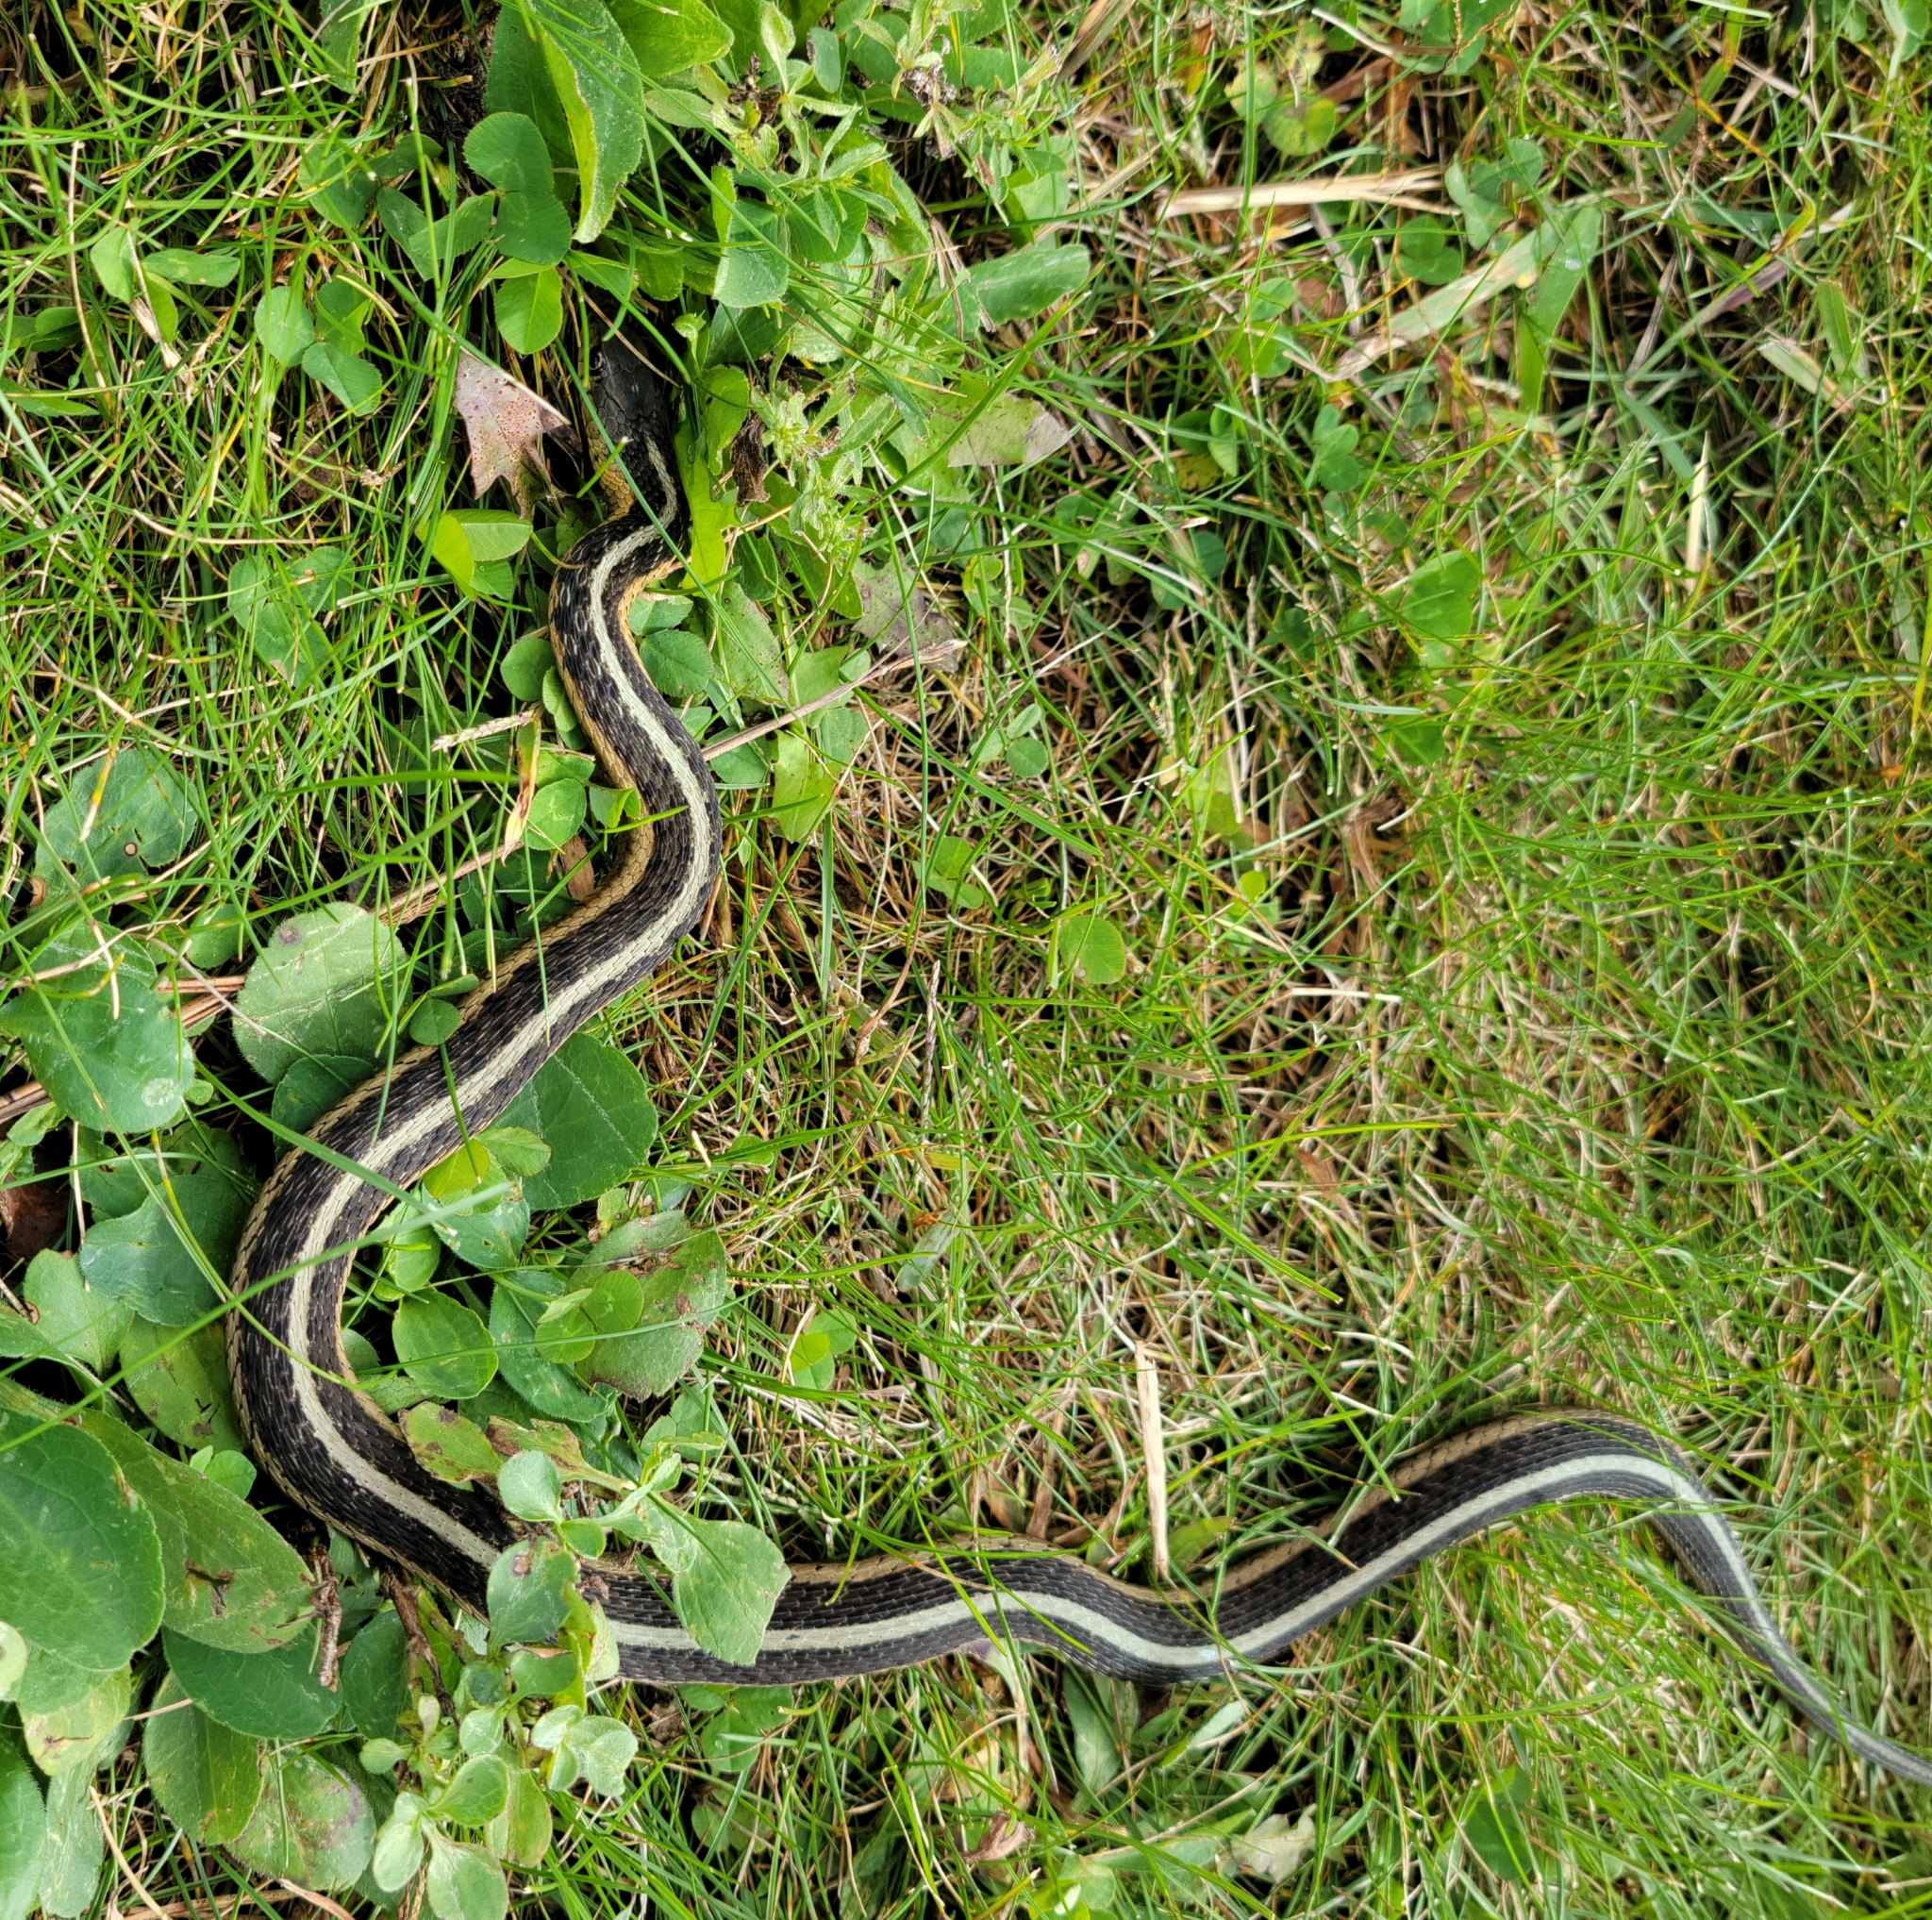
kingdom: Animalia
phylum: Chordata
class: Squamata
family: Colubridae
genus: Thamnophis
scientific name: Thamnophis sirtalis
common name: Common garter snake
